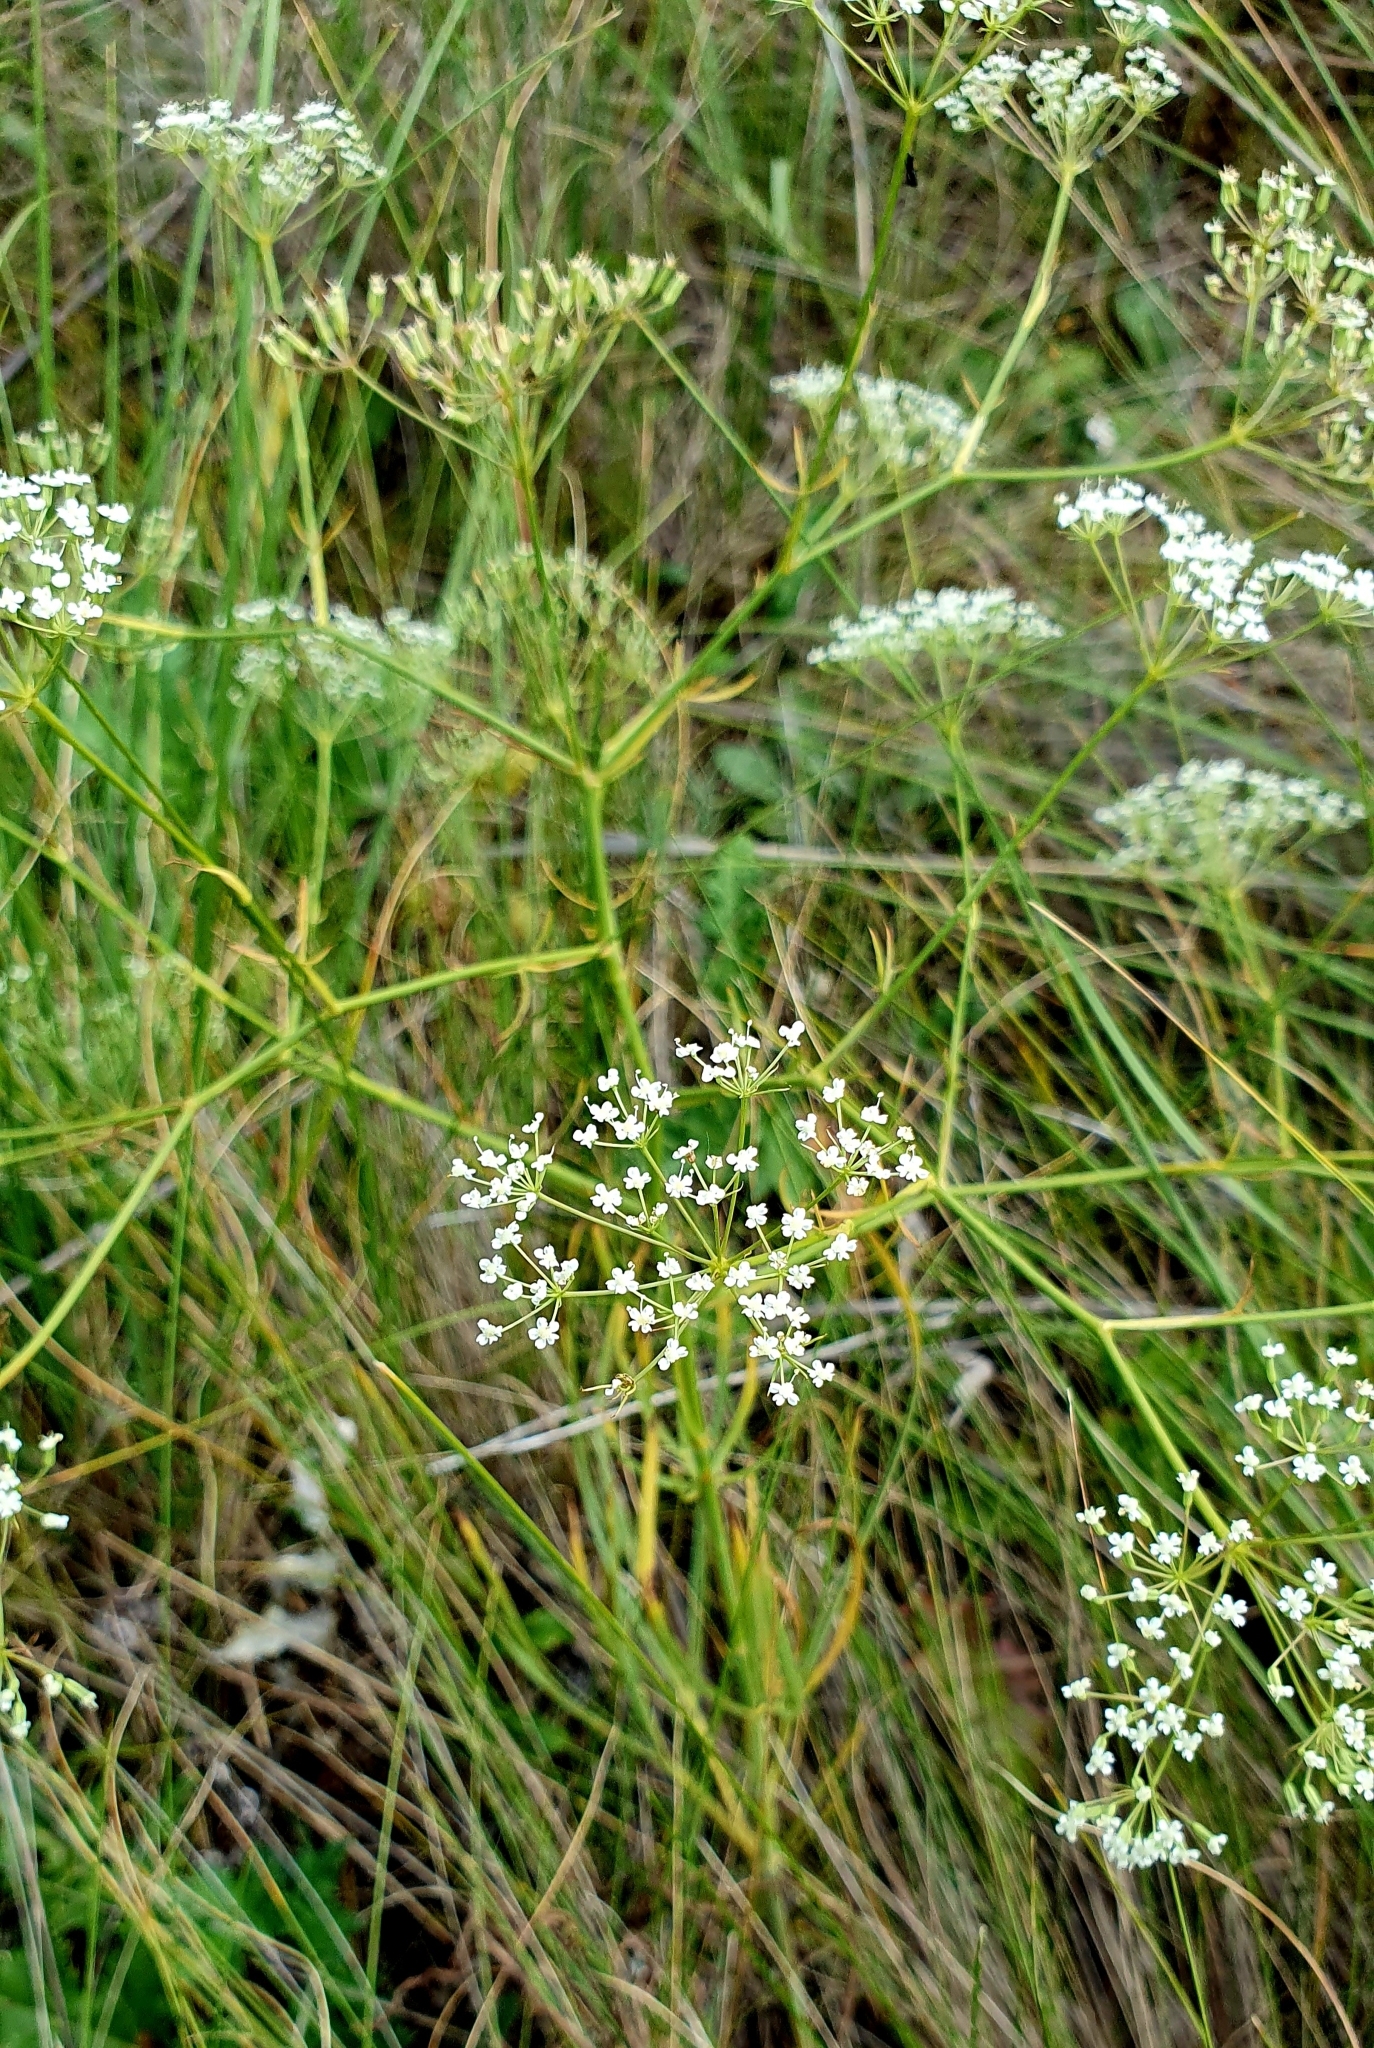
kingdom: Plantae
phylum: Tracheophyta
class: Magnoliopsida
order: Apiales
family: Apiaceae
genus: Falcaria
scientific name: Falcaria vulgaris
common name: Longleaf
